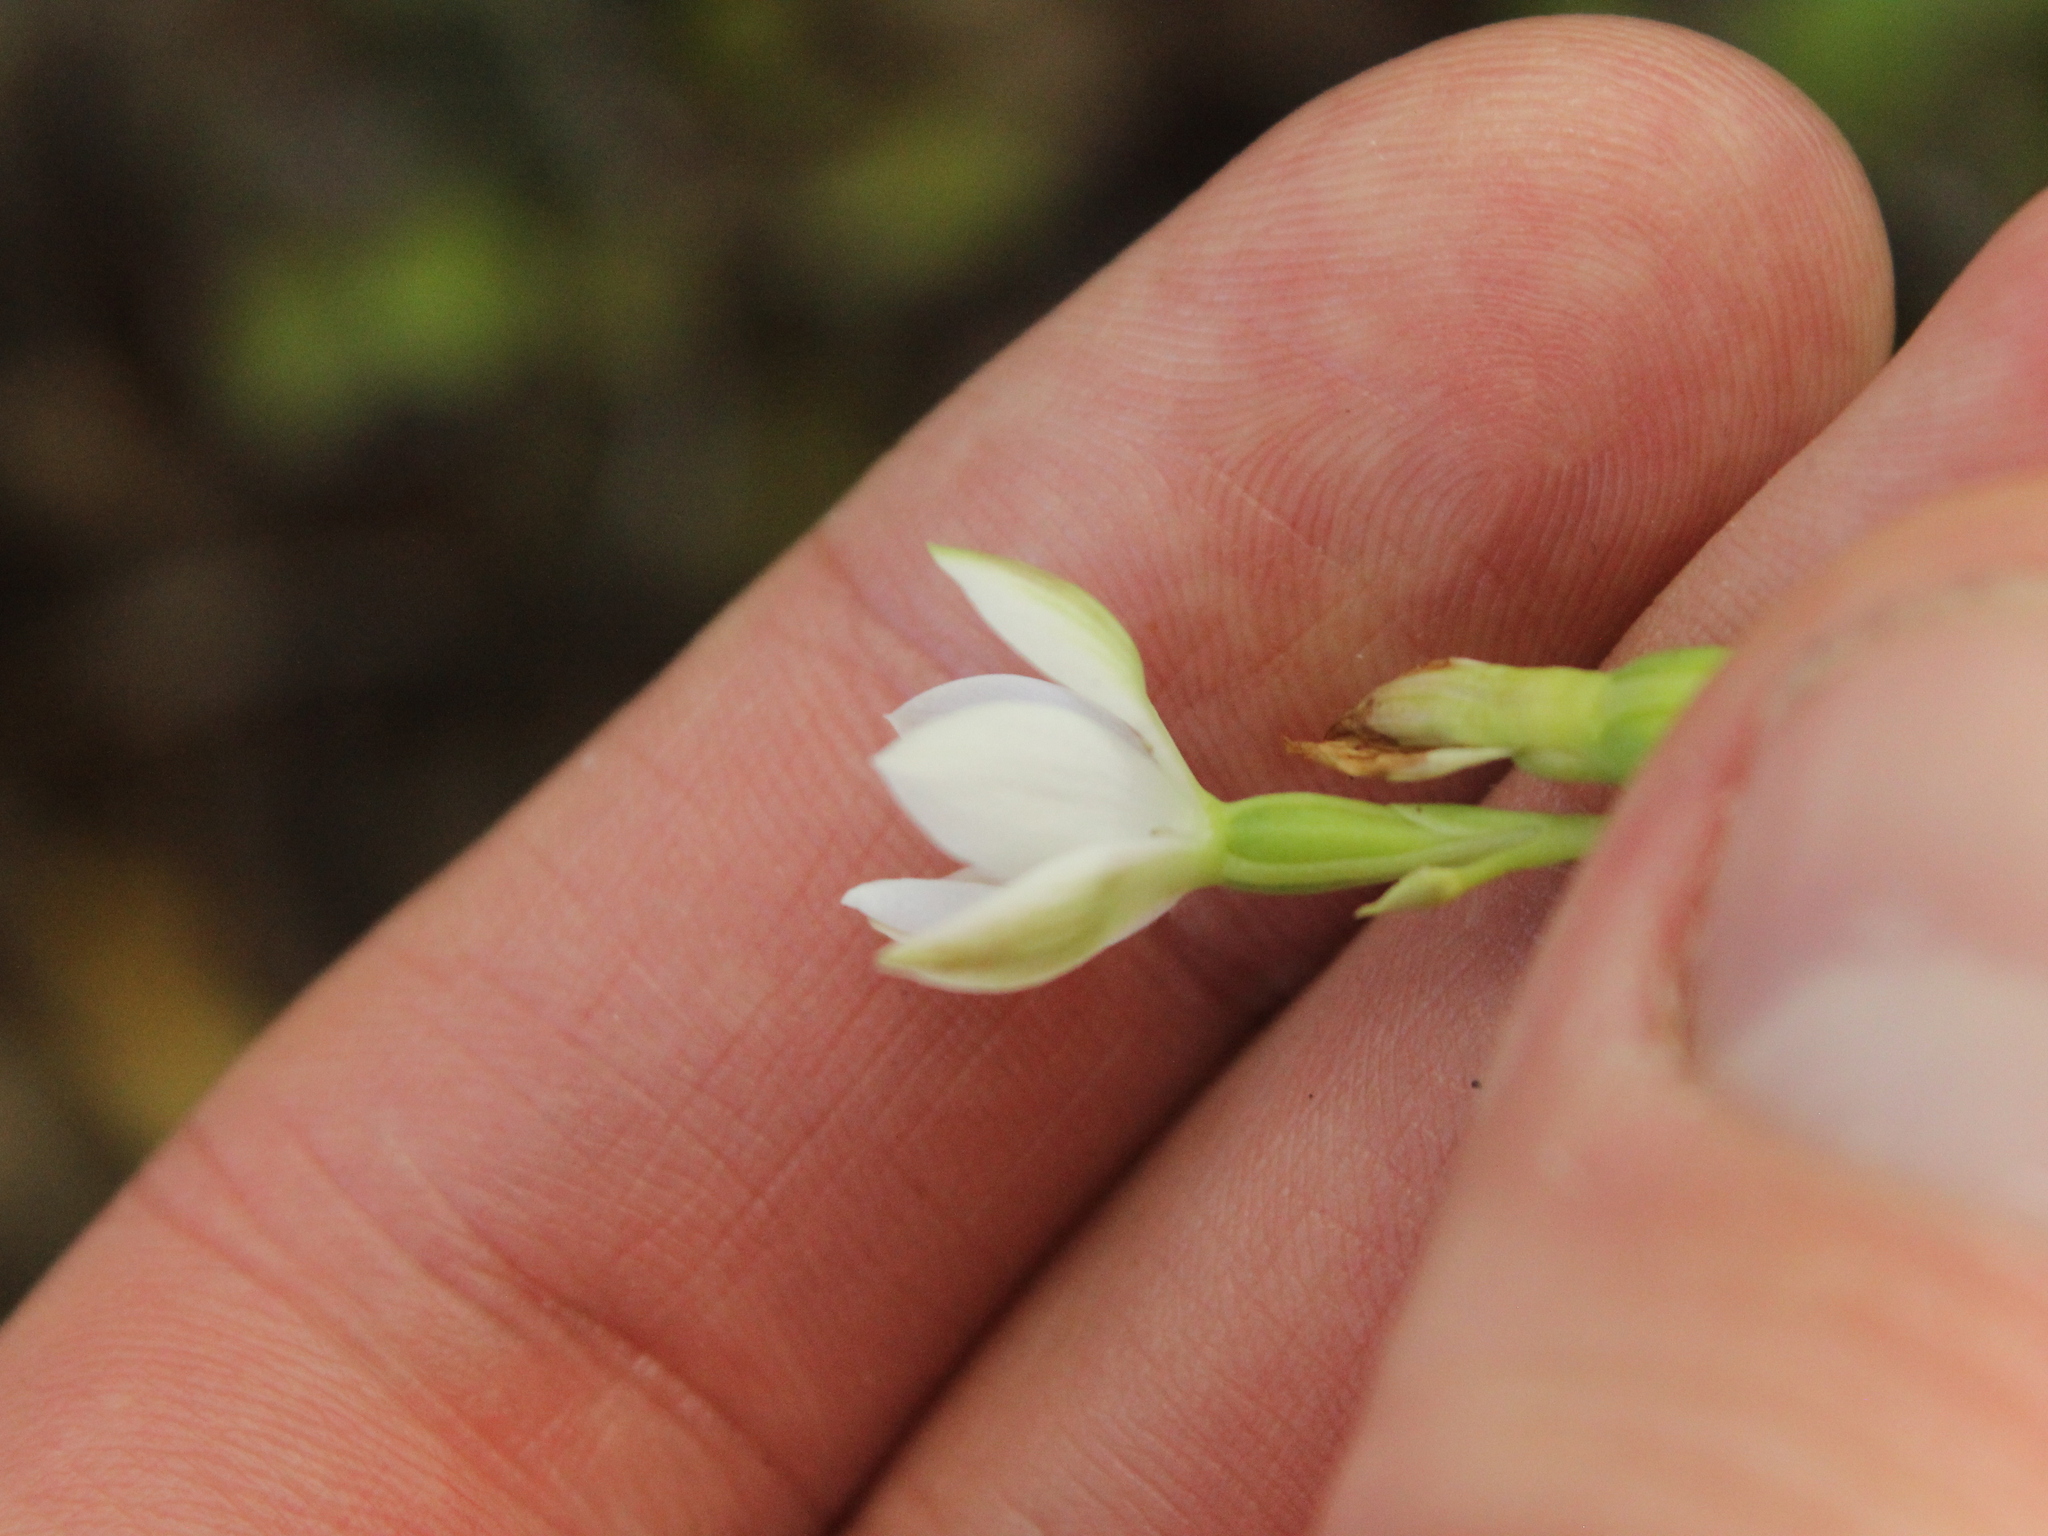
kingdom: Plantae
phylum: Tracheophyta
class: Liliopsida
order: Asparagales
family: Orchidaceae
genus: Thelymitra
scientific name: Thelymitra longifolia
